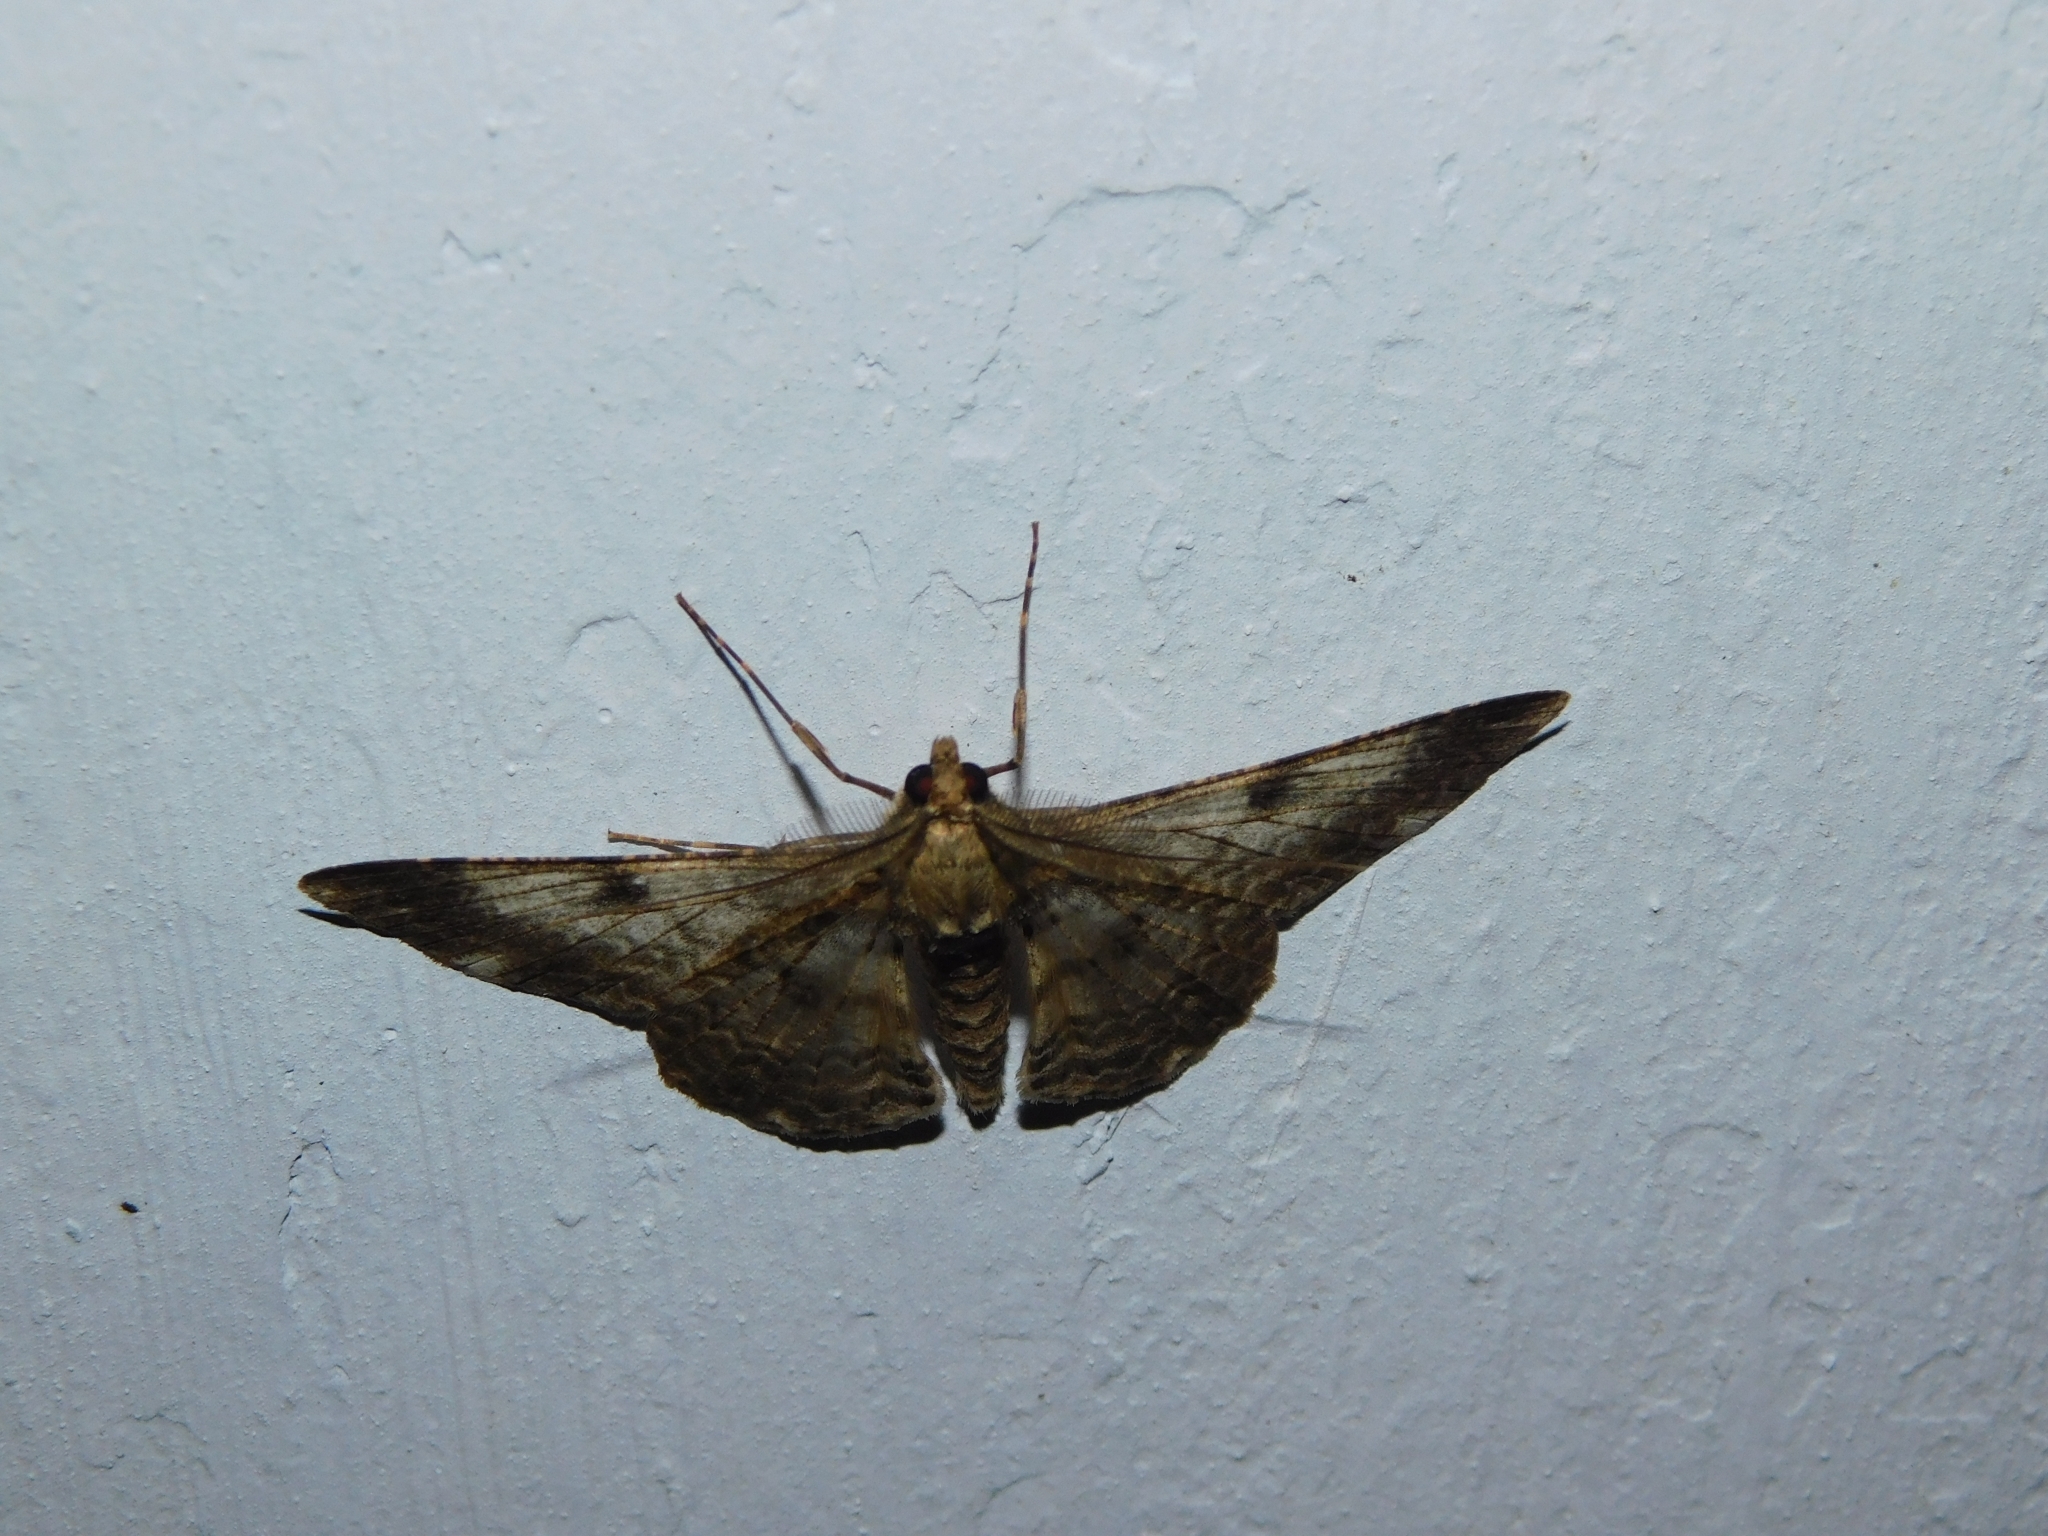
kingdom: Animalia
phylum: Arthropoda
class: Insecta
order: Lepidoptera
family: Geometridae
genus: Cleora
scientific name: Cleora contiguata
